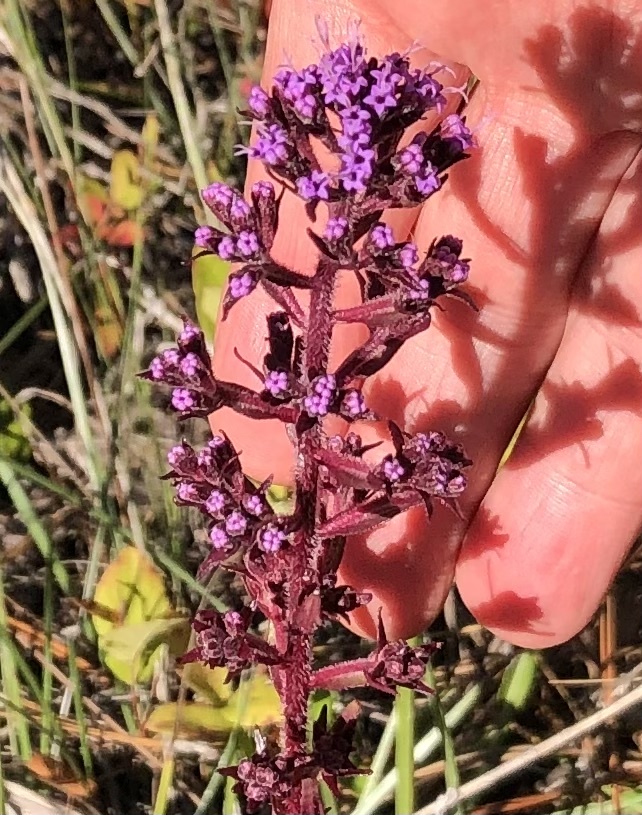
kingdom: Plantae
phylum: Tracheophyta
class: Magnoliopsida
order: Asterales
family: Asteraceae
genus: Carphephorus
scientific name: Carphephorus paniculatus
